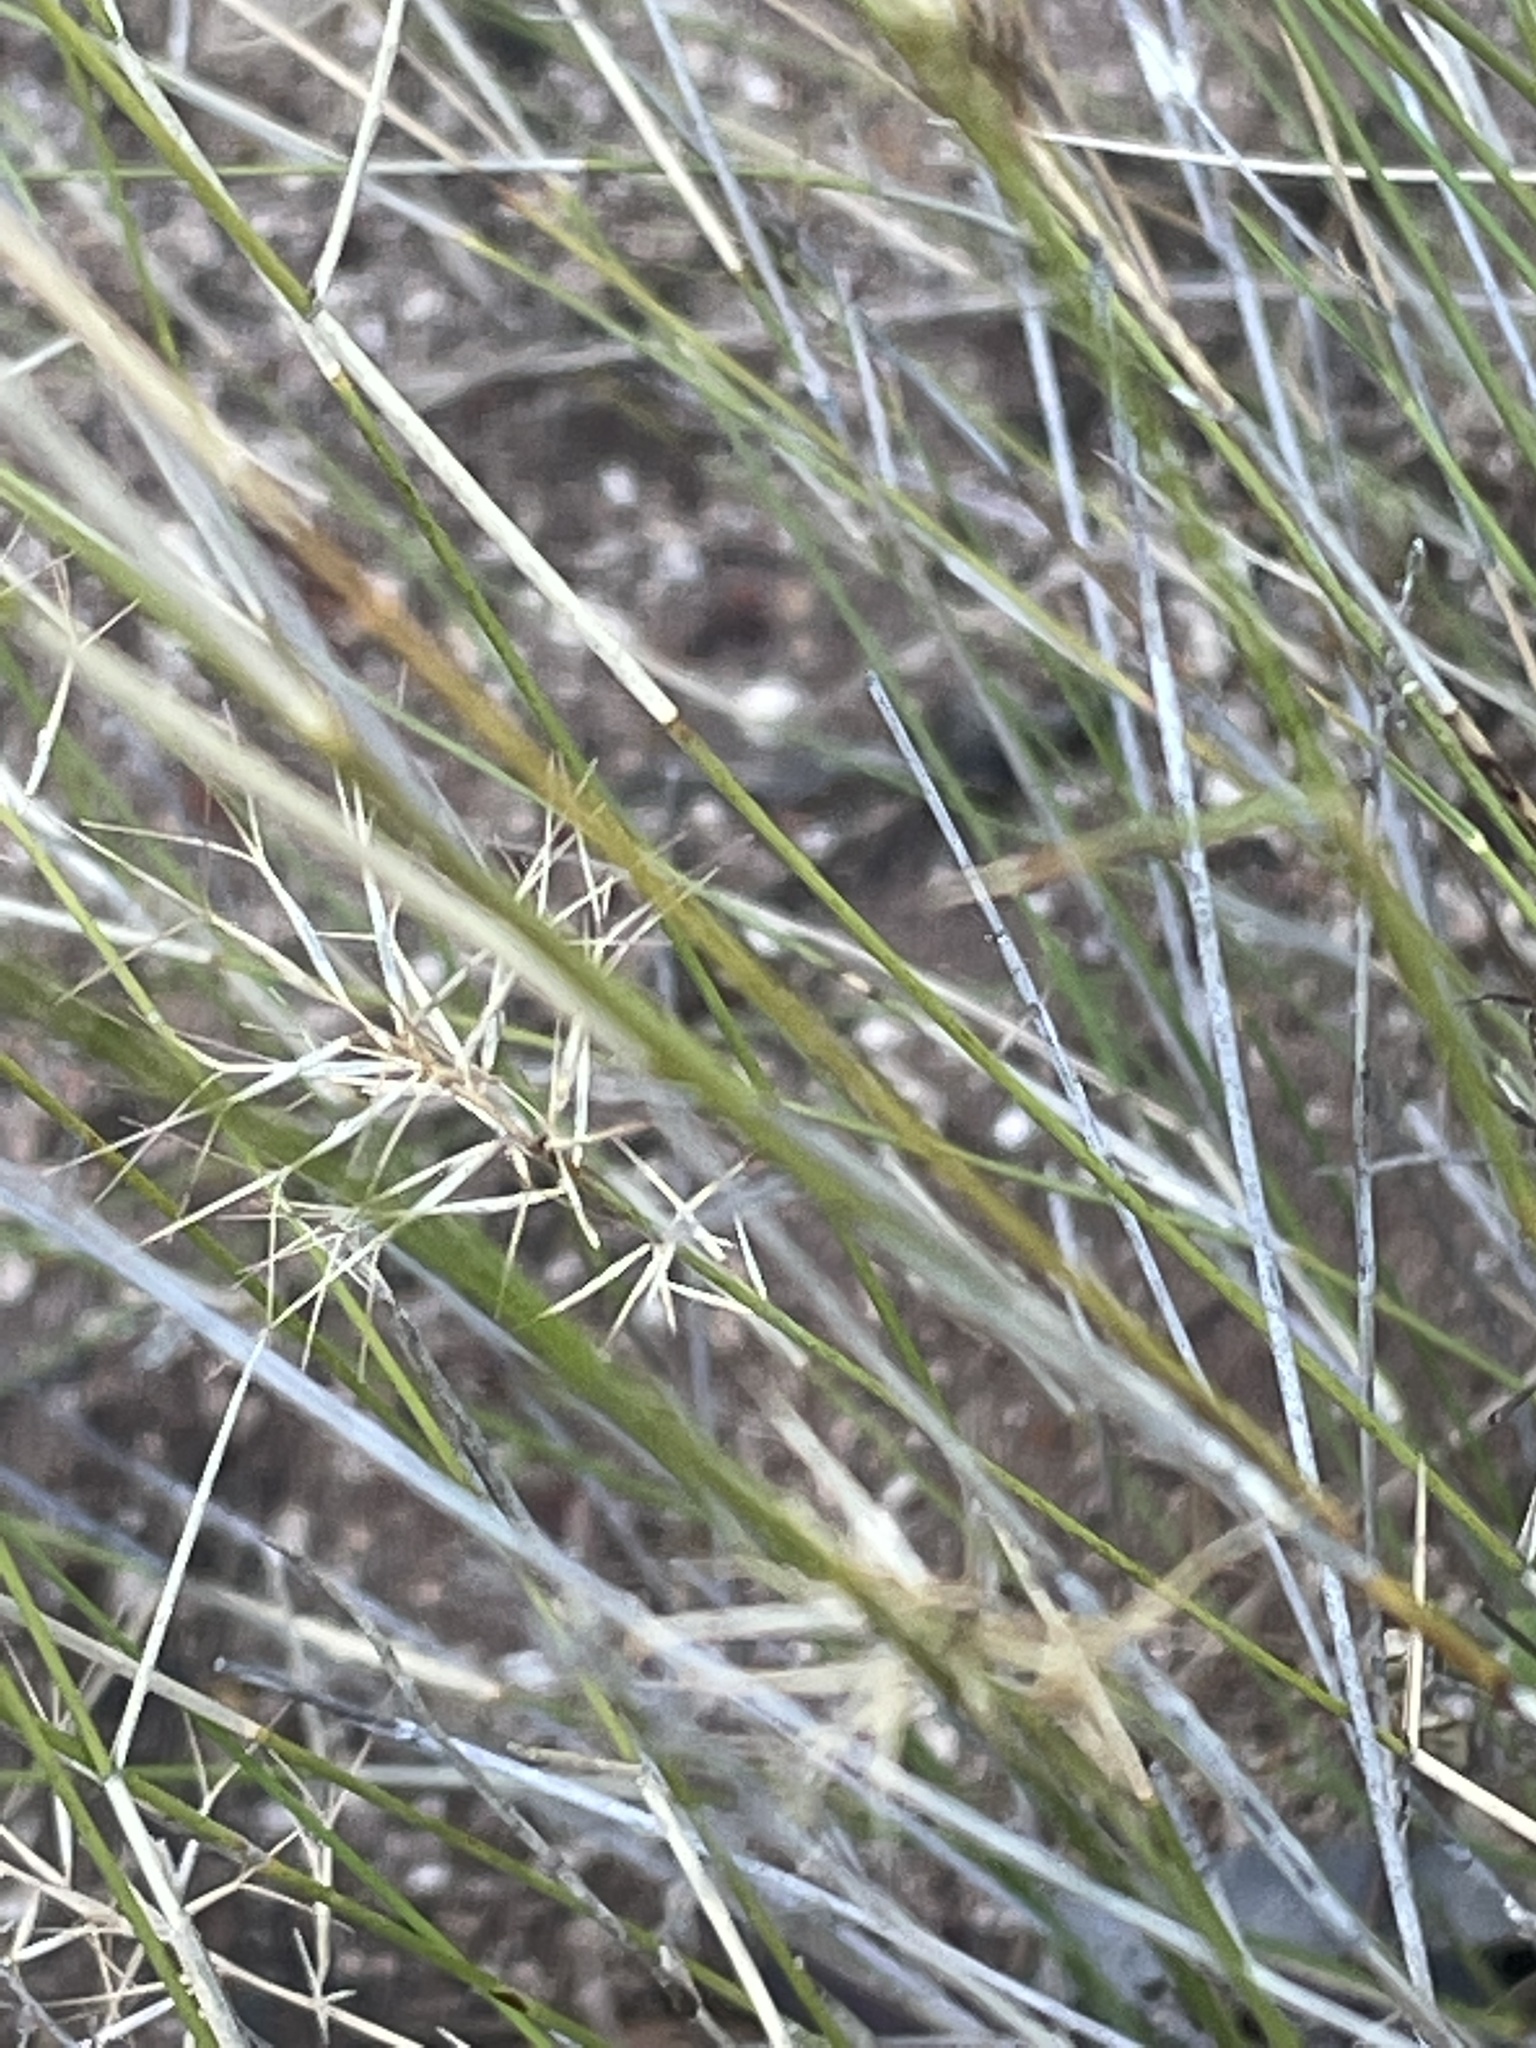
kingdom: Plantae
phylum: Tracheophyta
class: Liliopsida
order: Poales
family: Poaceae
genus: Aristida
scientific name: Aristida caput-medusae
